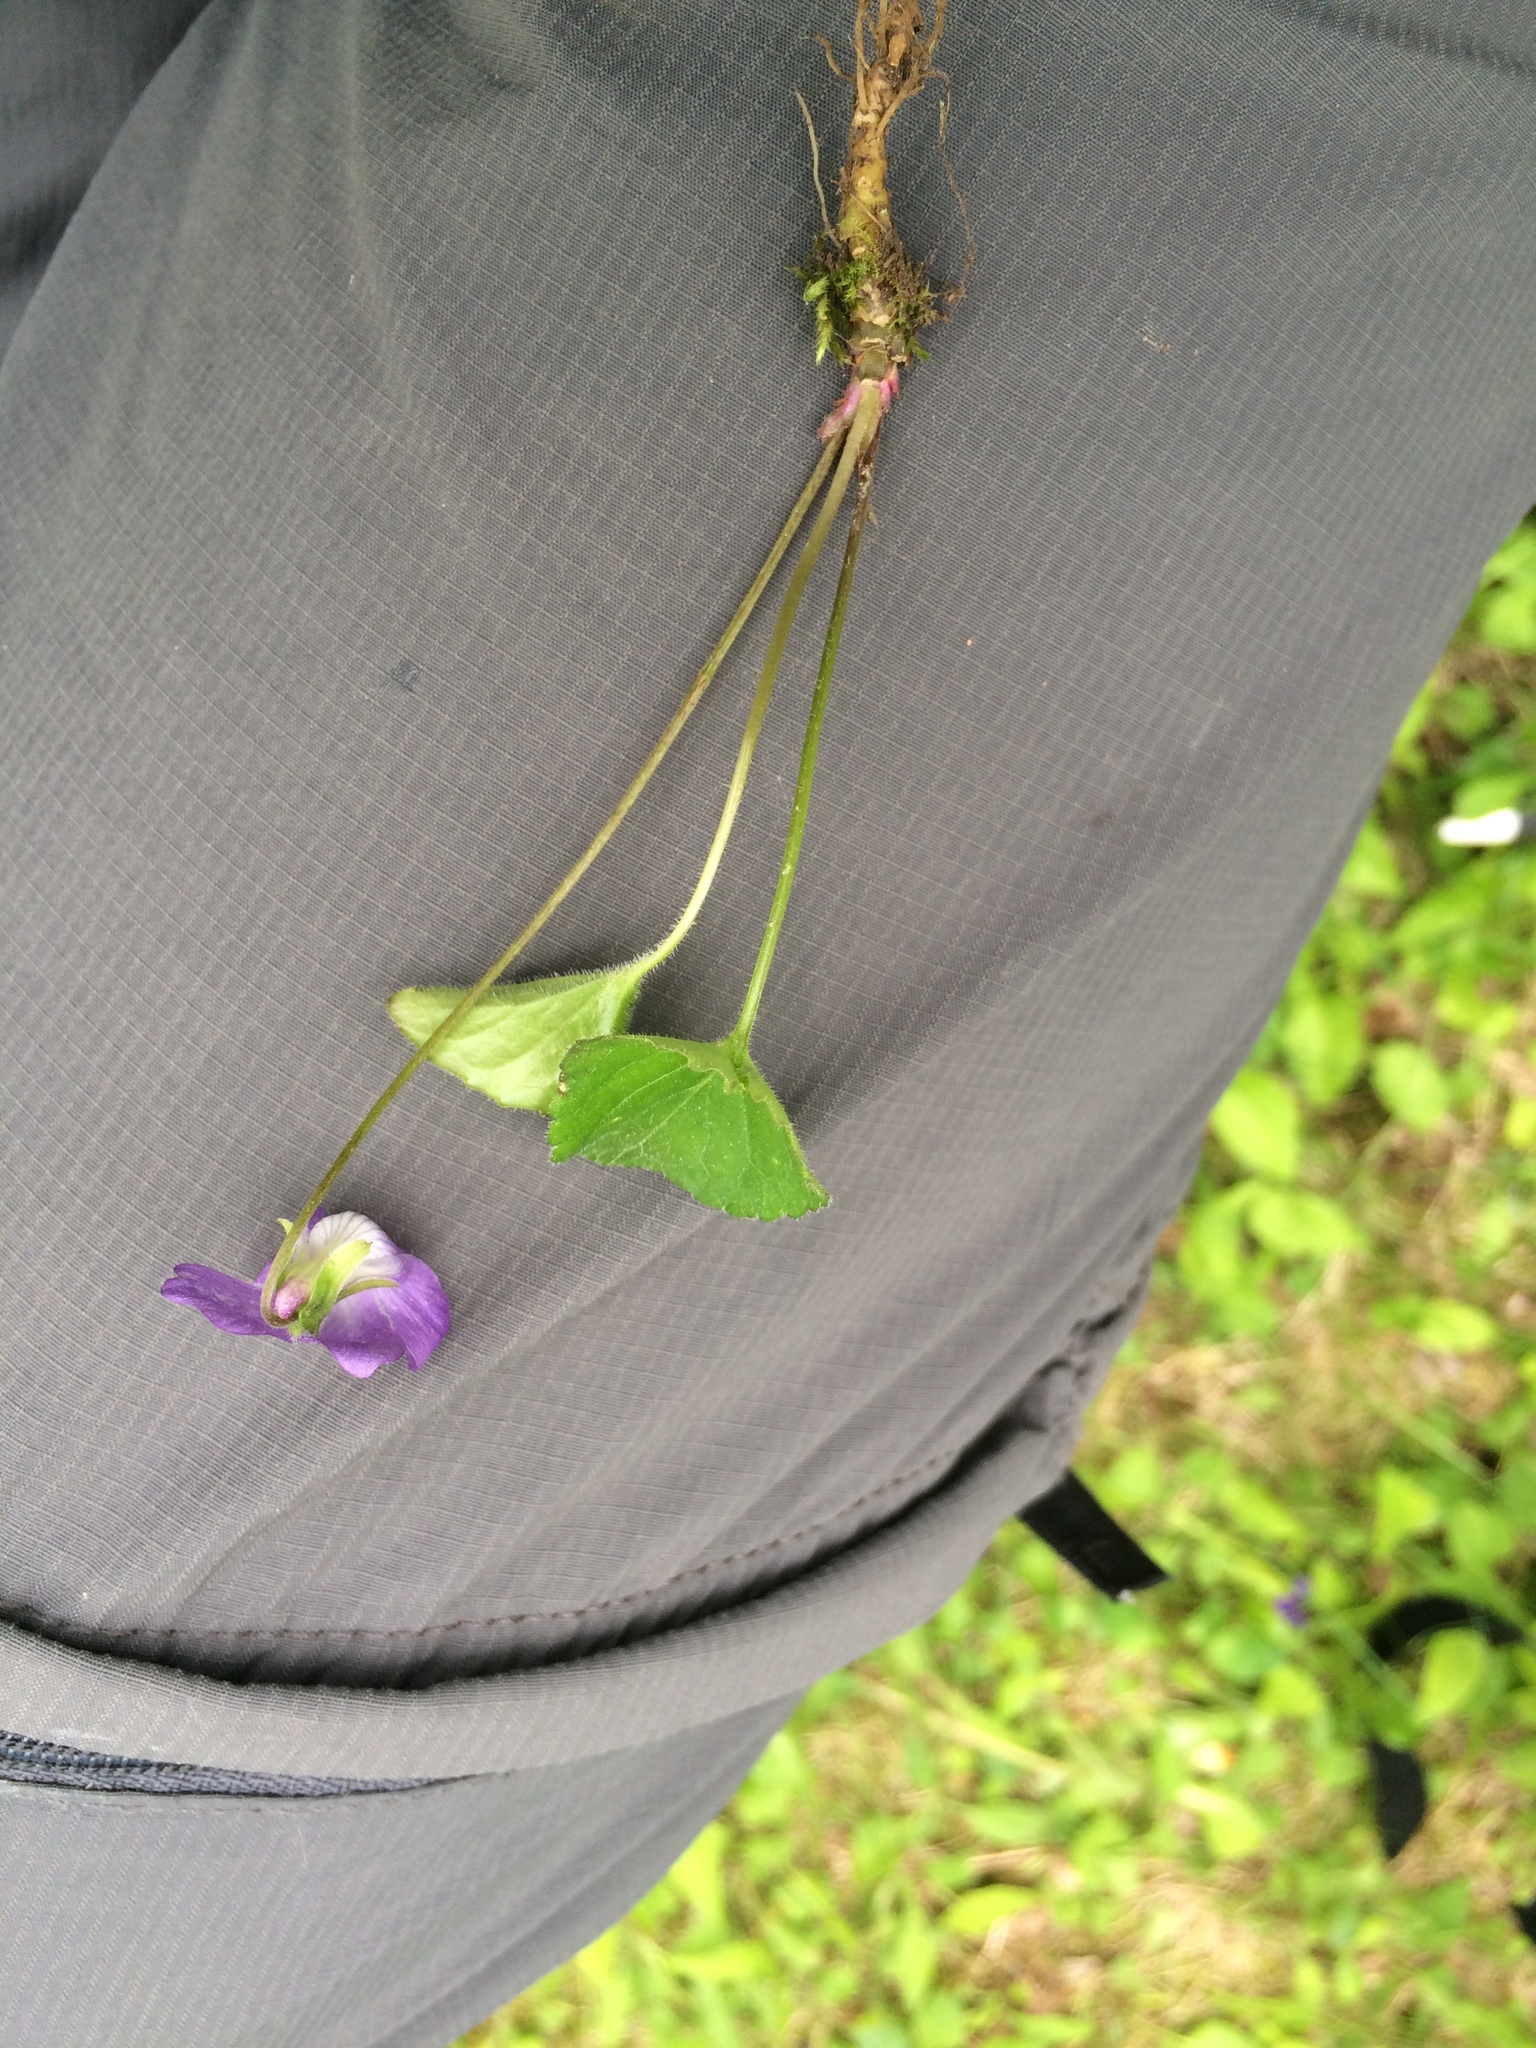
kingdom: Plantae
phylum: Tracheophyta
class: Magnoliopsida
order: Malpighiales
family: Violaceae
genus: Viola
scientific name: Viola septentrionalis
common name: Northern woodland violet
